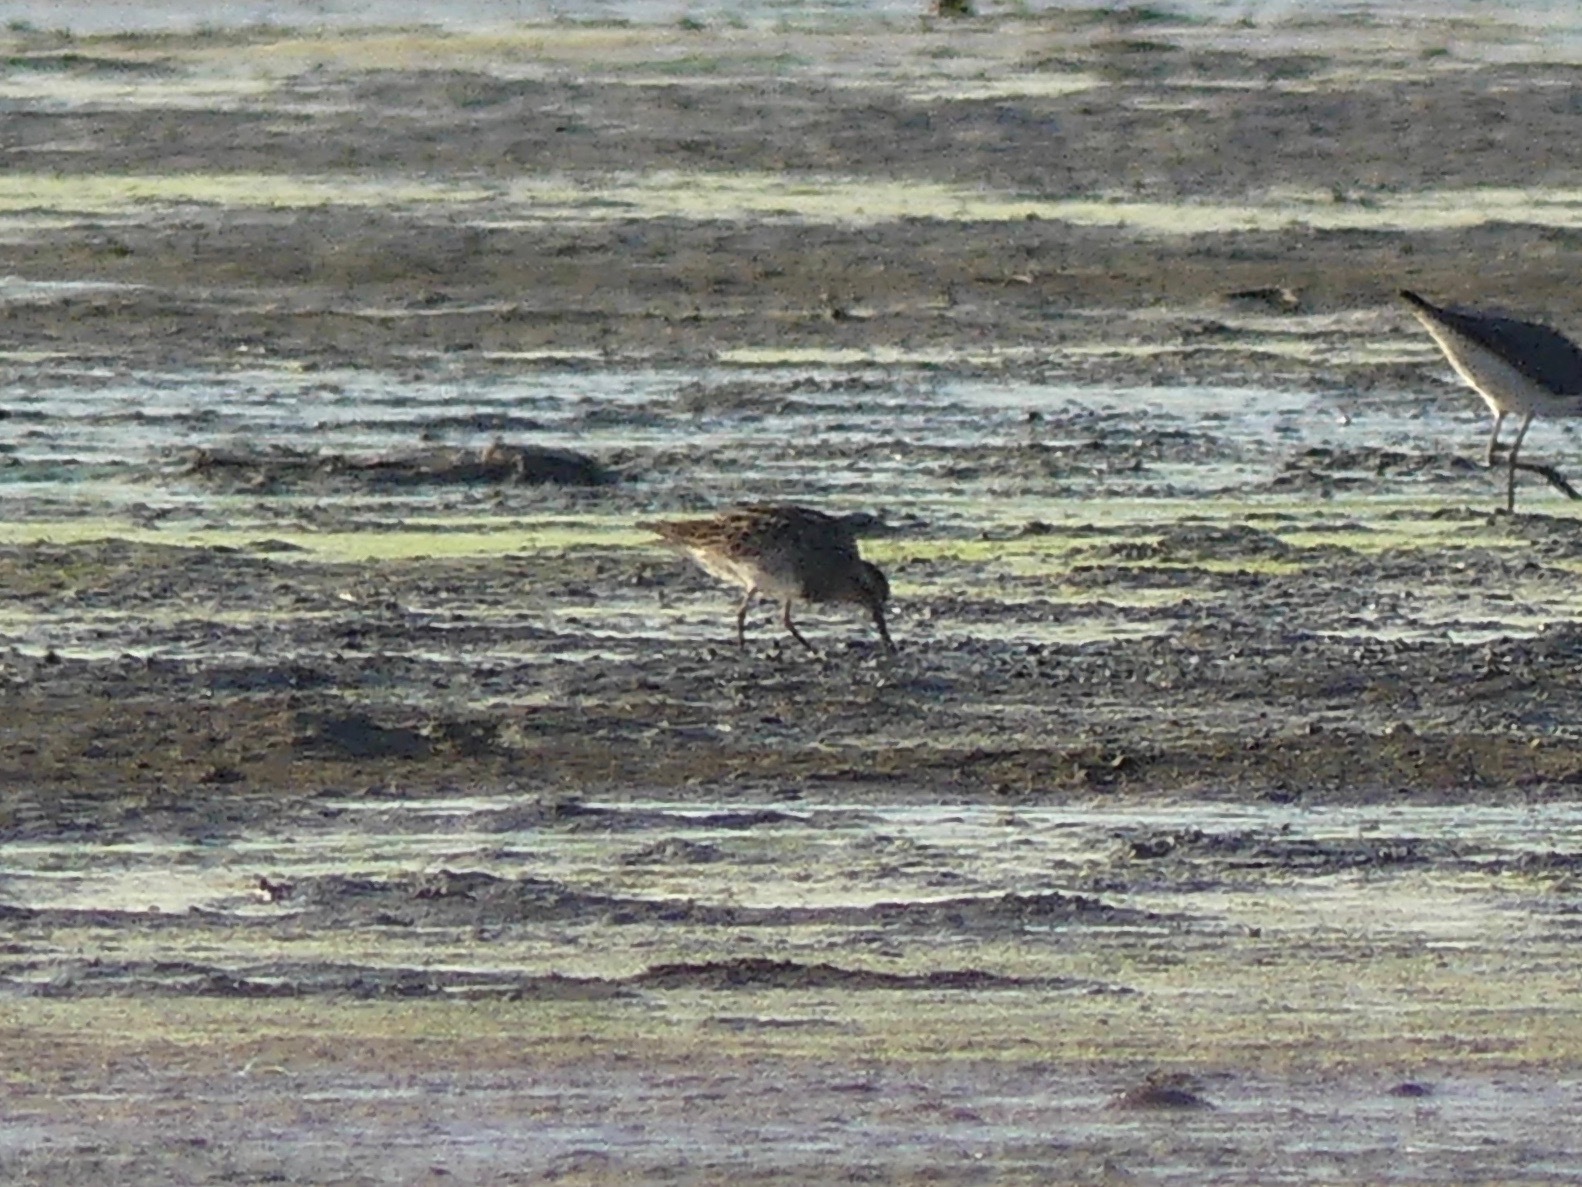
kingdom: Animalia
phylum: Chordata
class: Aves
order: Charadriiformes
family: Scolopacidae
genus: Calidris
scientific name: Calidris melanotos
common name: Pectoral sandpiper
